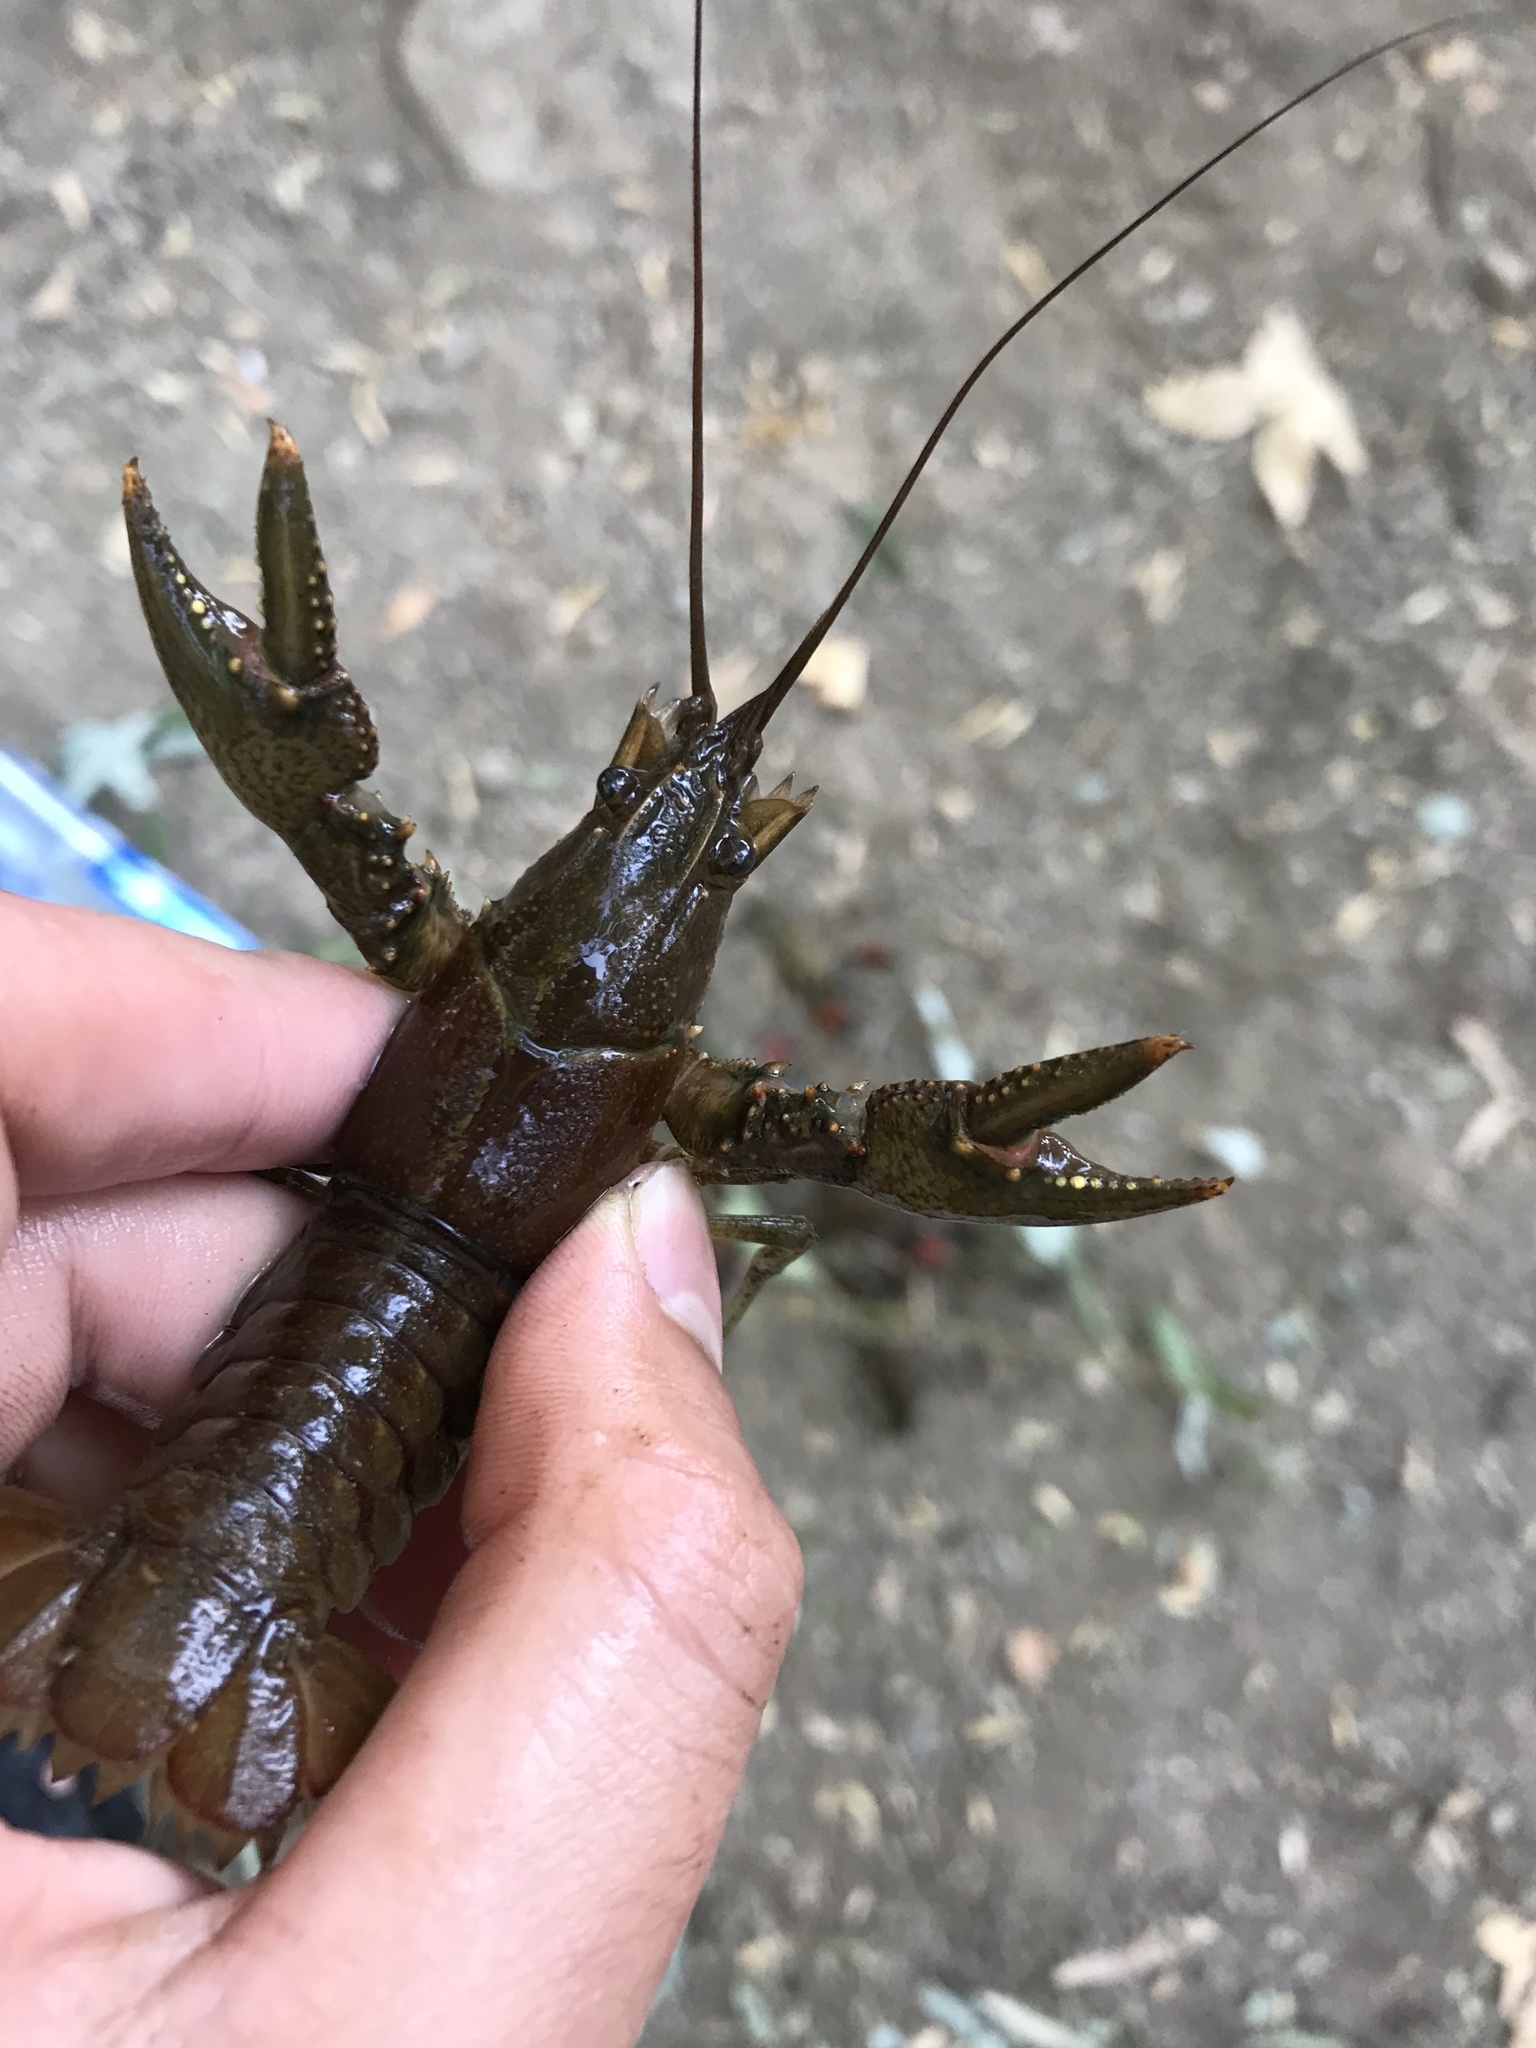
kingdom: Animalia
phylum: Arthropoda
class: Malacostraca
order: Decapoda
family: Cambaridae
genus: Faxonius
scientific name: Faxonius virilis
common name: Virile crayfish
